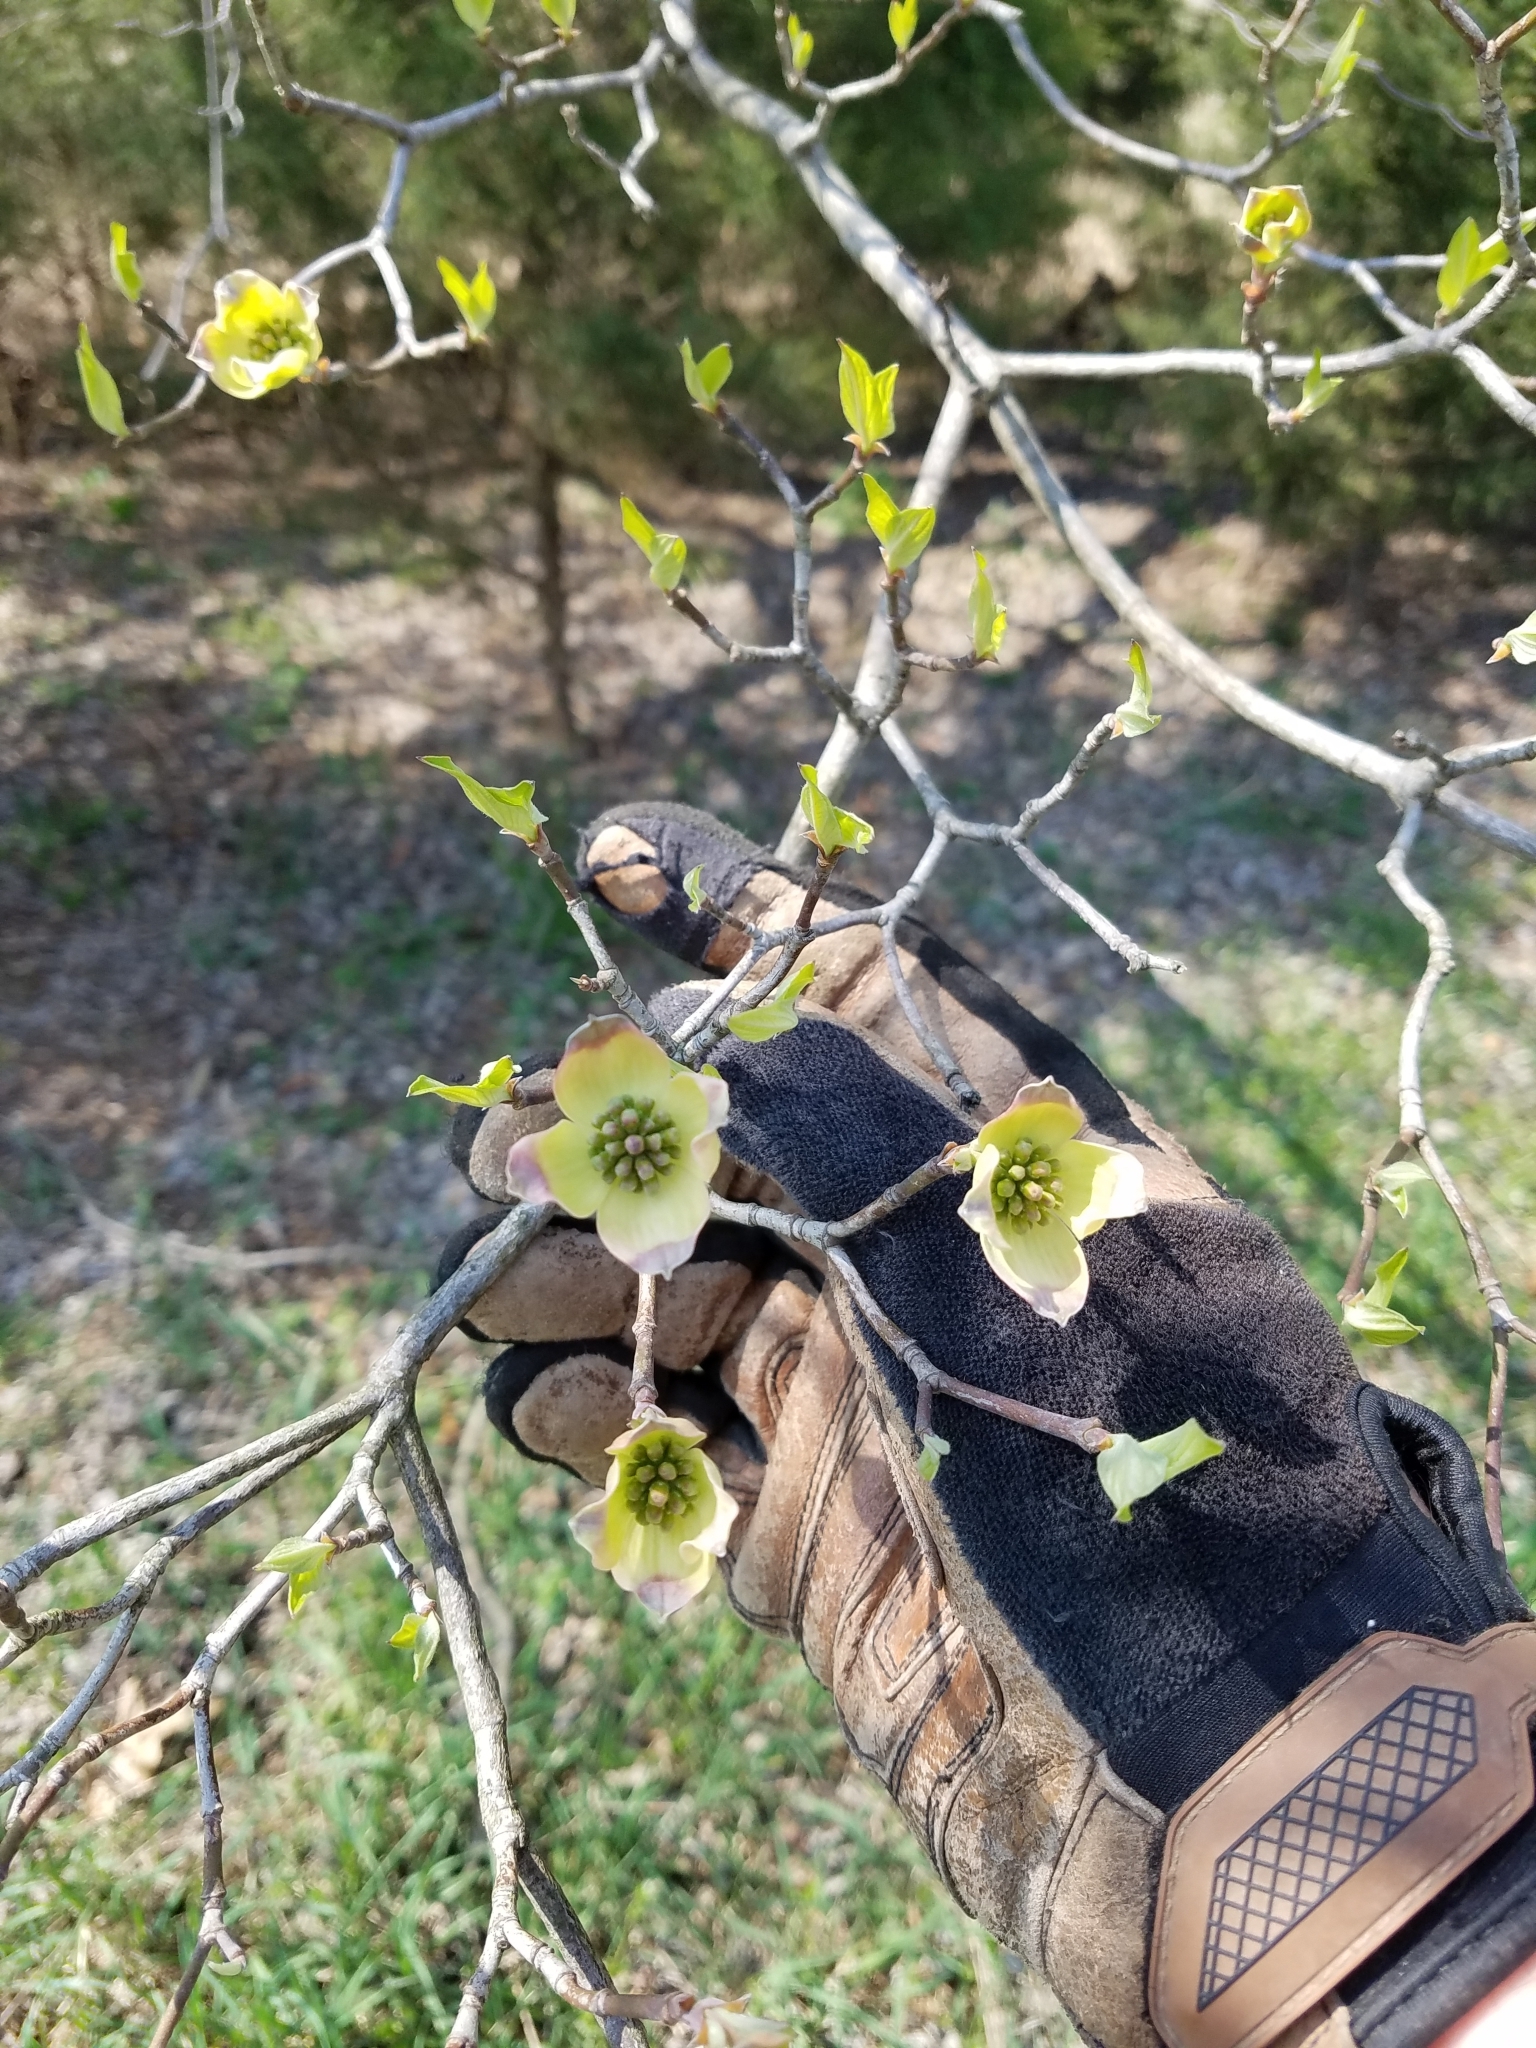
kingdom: Plantae
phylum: Tracheophyta
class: Magnoliopsida
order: Cornales
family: Cornaceae
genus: Cornus
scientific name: Cornus florida
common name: Flowering dogwood
